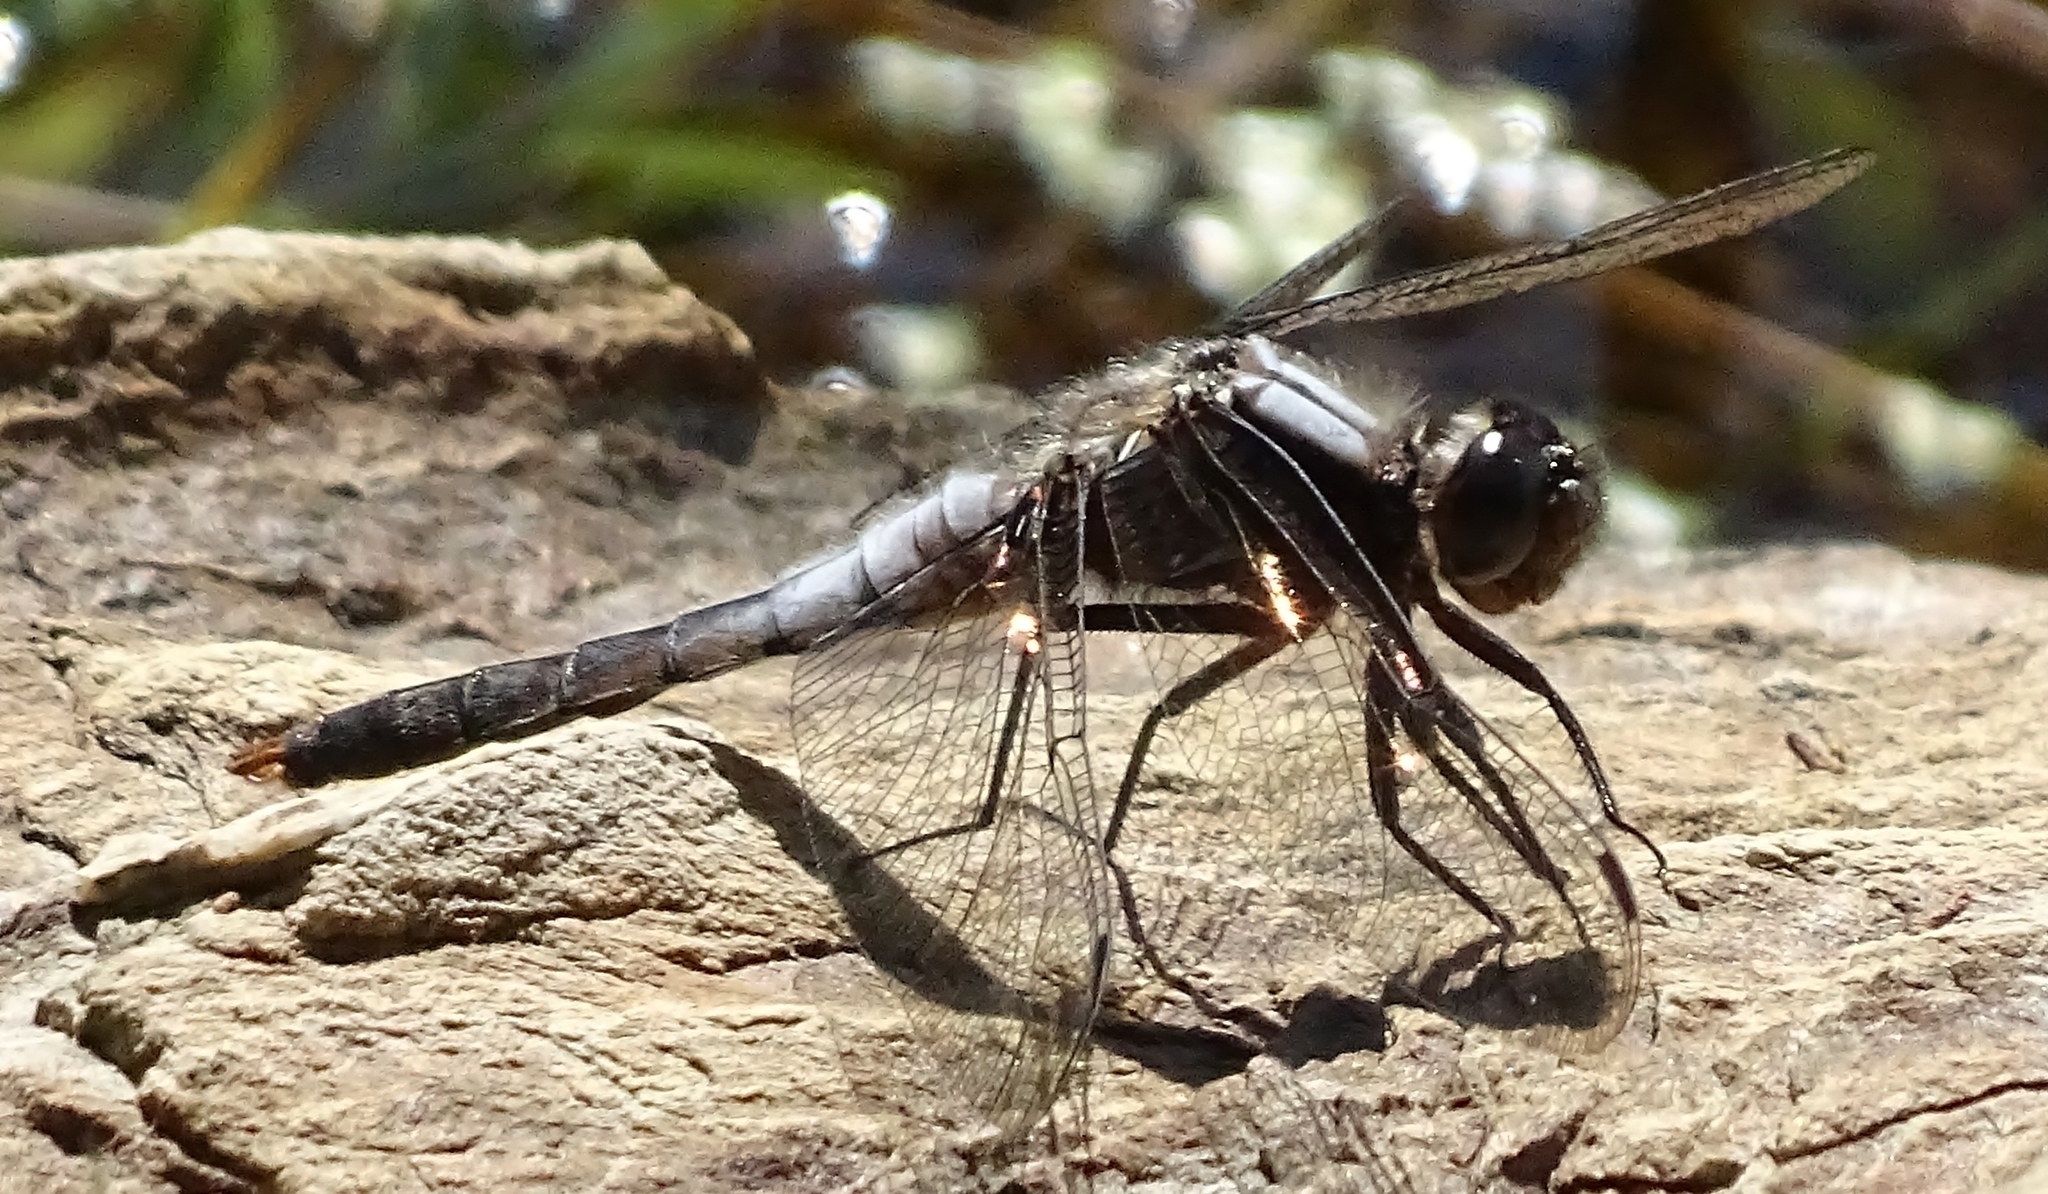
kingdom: Animalia
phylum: Arthropoda
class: Insecta
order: Odonata
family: Libellulidae
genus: Ladona
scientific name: Ladona julia
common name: Chalk-fronted corporal
